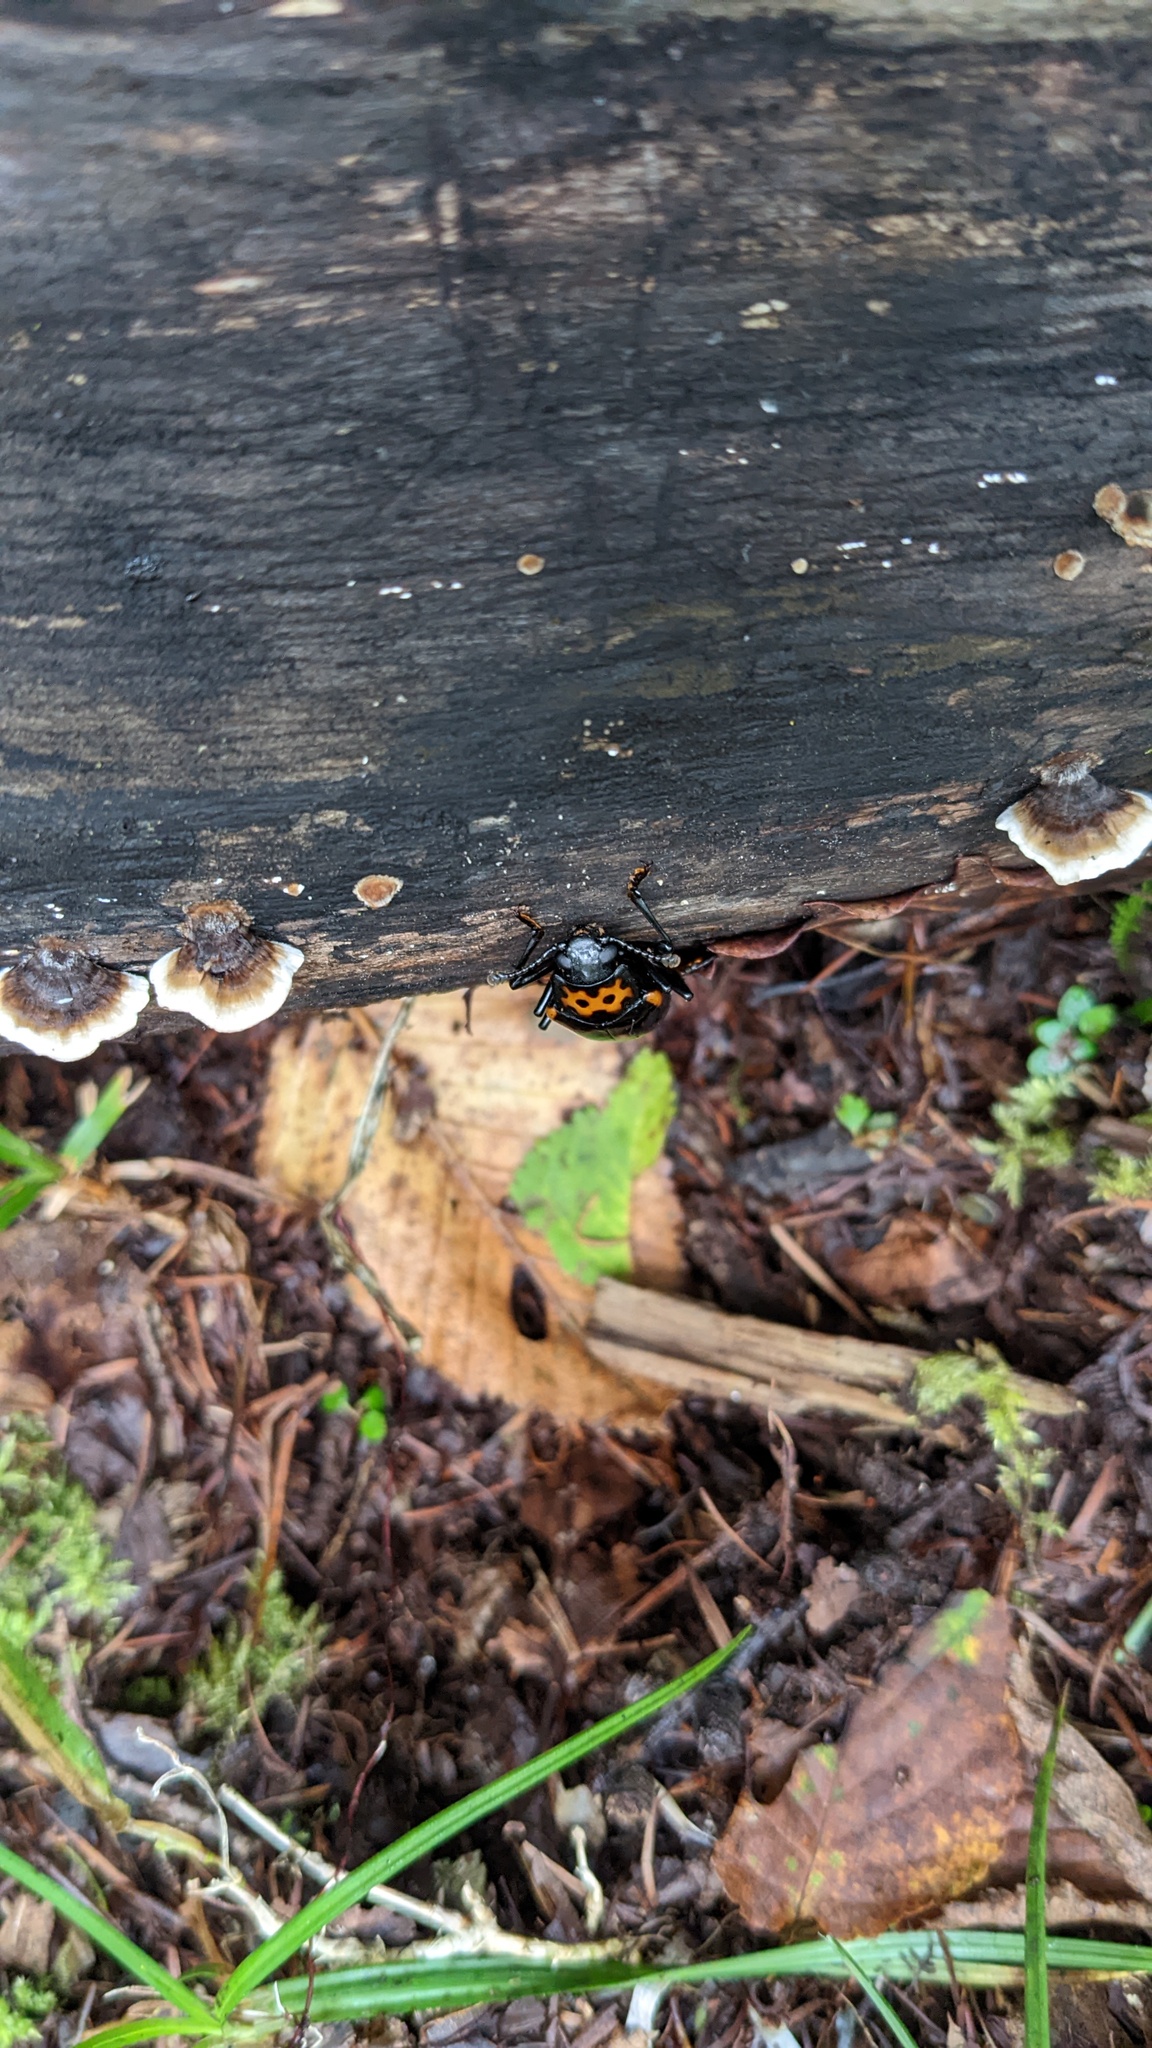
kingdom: Animalia
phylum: Arthropoda
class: Insecta
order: Coleoptera
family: Erotylidae
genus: Encaustes
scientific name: Encaustes cruenta
